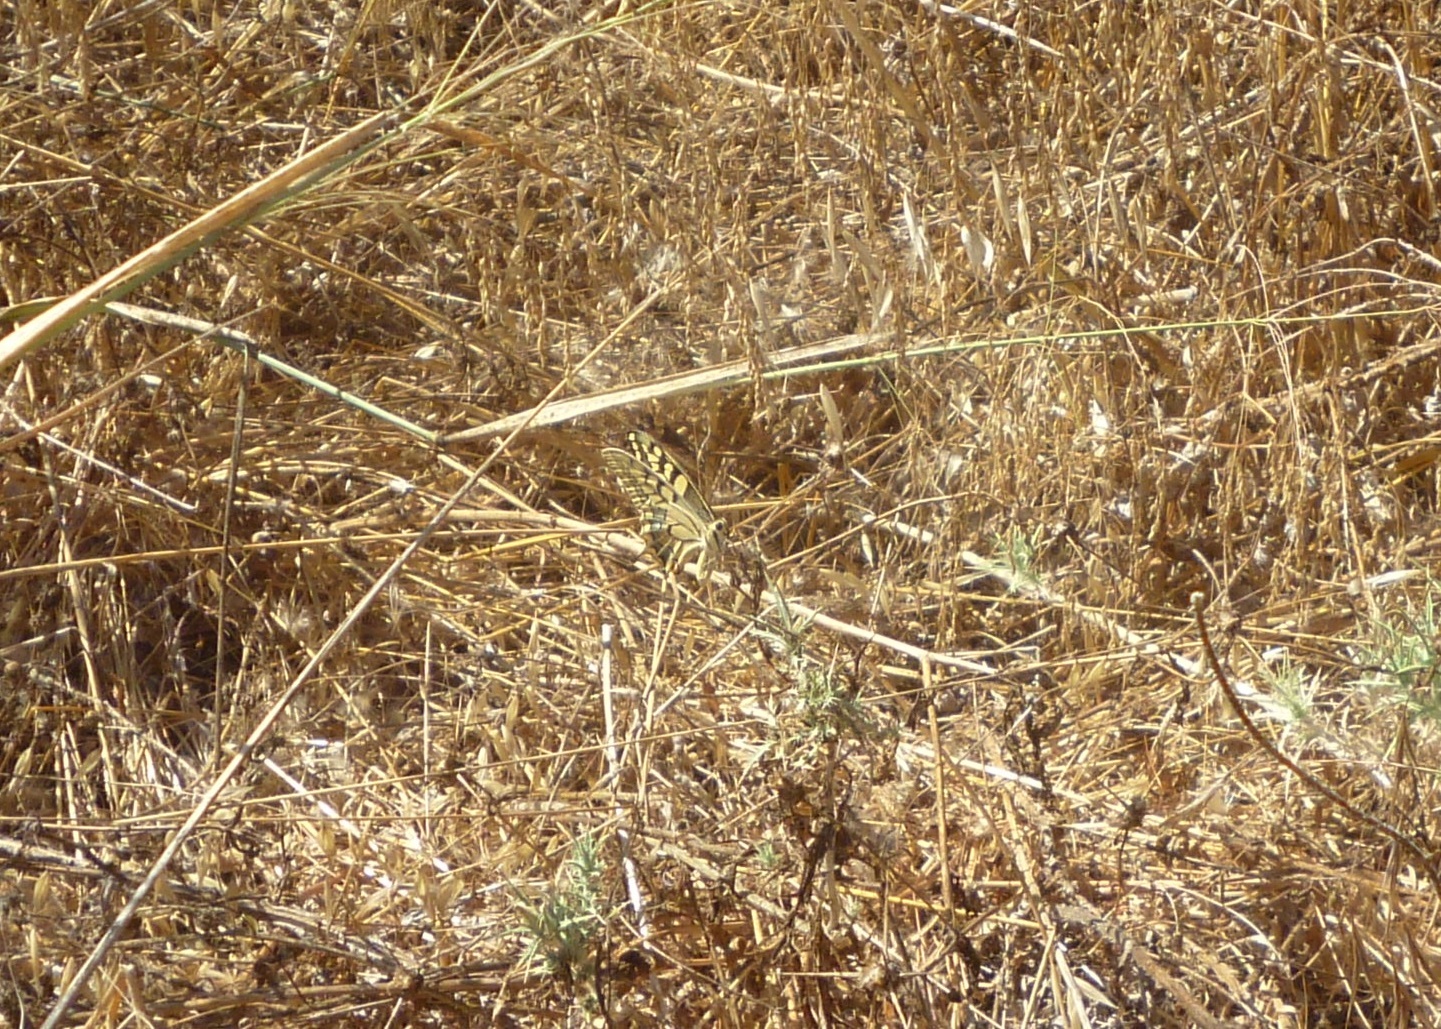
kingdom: Animalia
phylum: Arthropoda
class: Insecta
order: Lepidoptera
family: Papilionidae
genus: Papilio
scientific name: Papilio machaon
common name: Swallowtail
